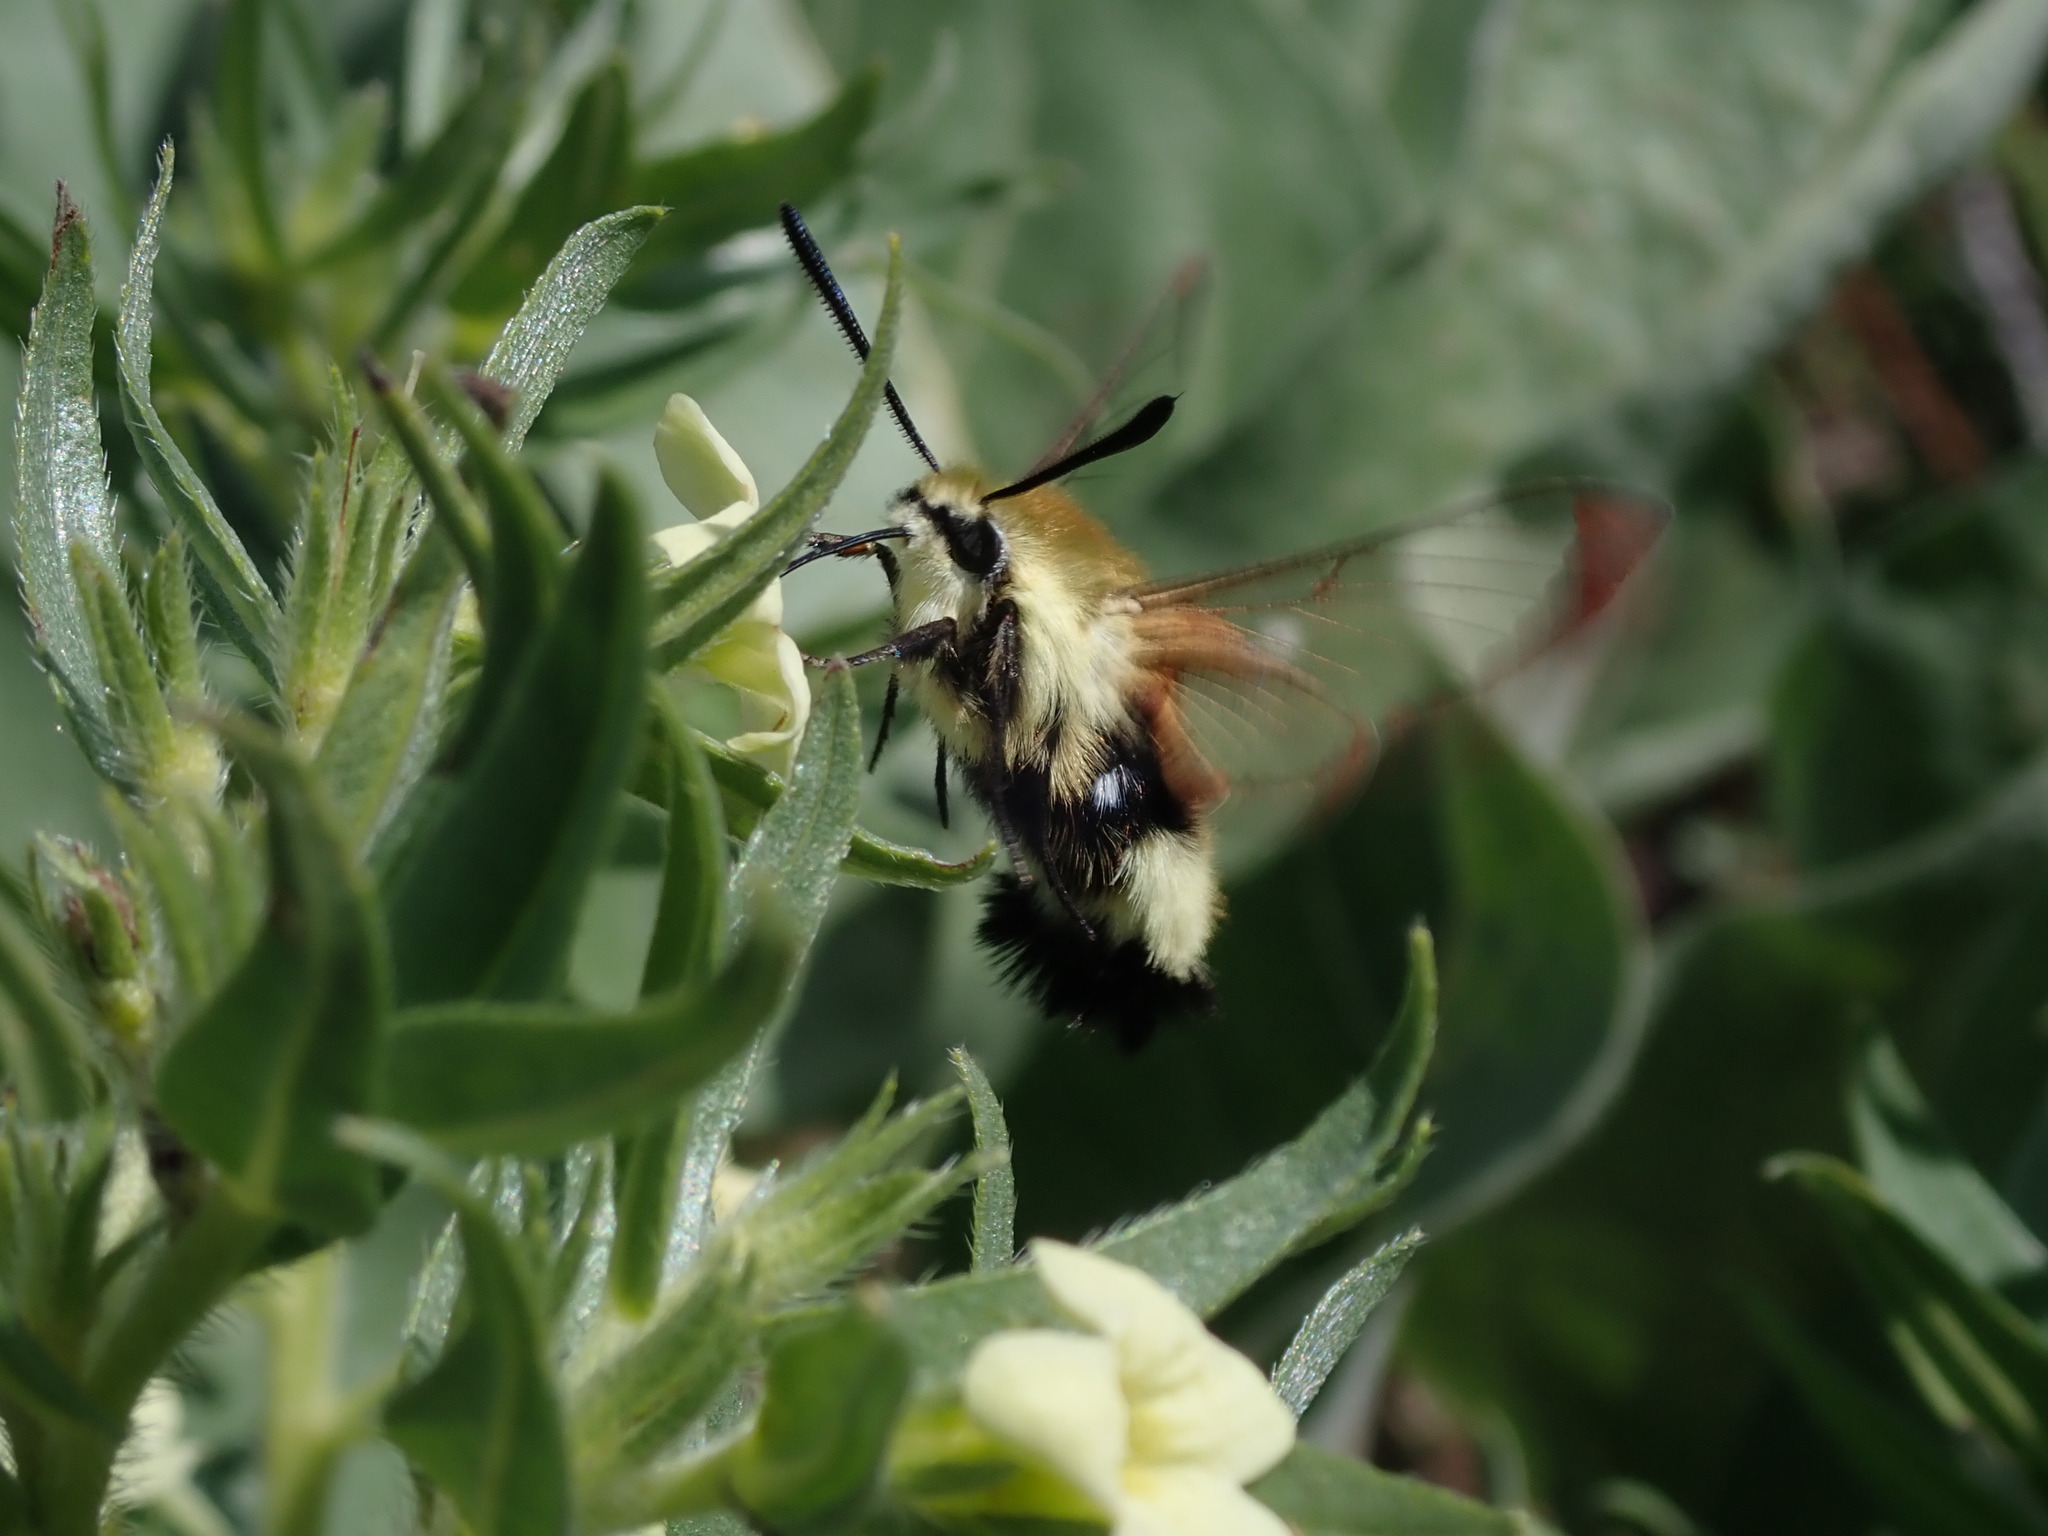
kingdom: Animalia
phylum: Arthropoda
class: Insecta
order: Lepidoptera
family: Sphingidae
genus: Hemaris
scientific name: Hemaris thetis
